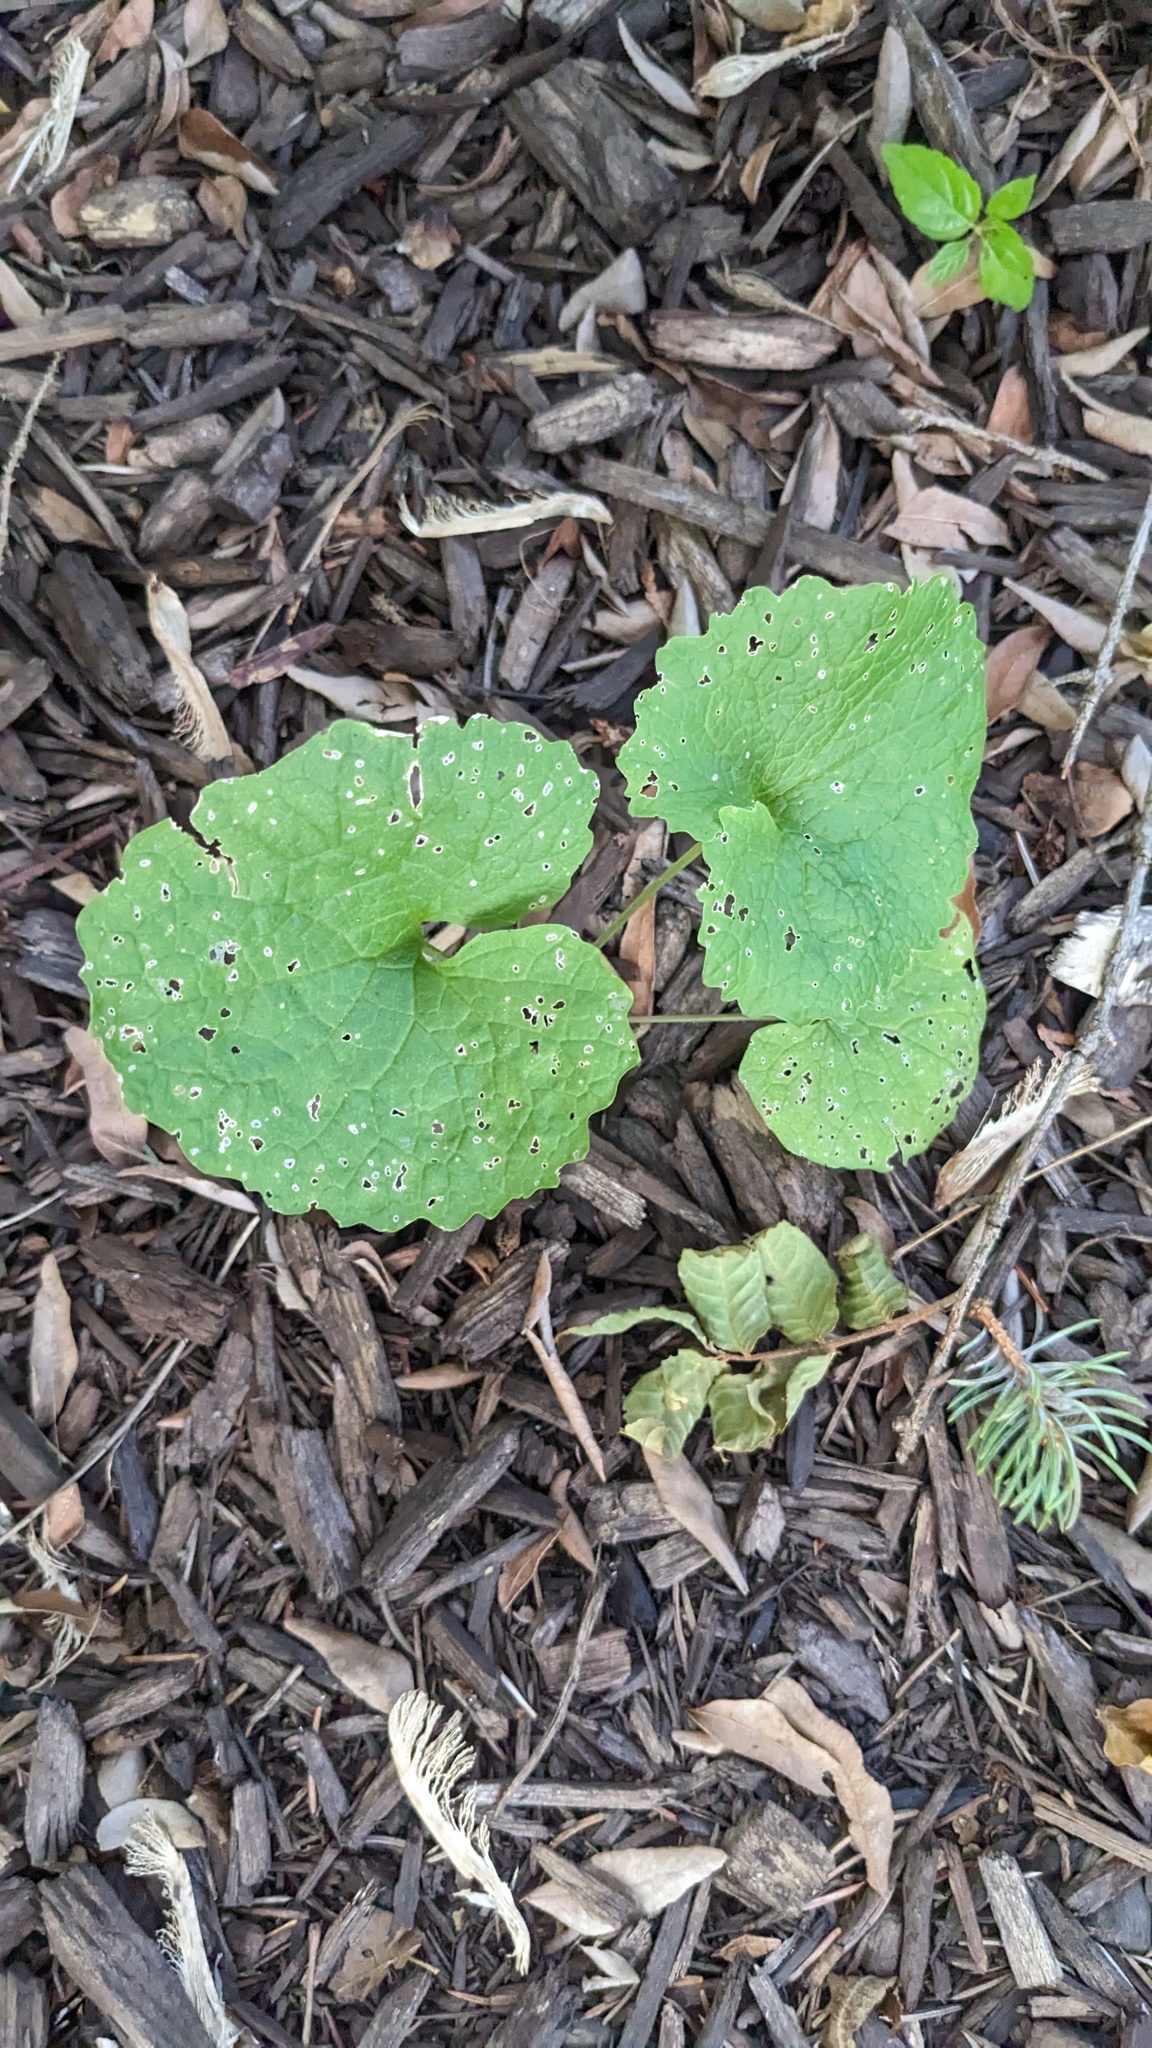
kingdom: Plantae
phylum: Tracheophyta
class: Magnoliopsida
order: Brassicales
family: Brassicaceae
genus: Alliaria
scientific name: Alliaria petiolata
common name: Garlic mustard
